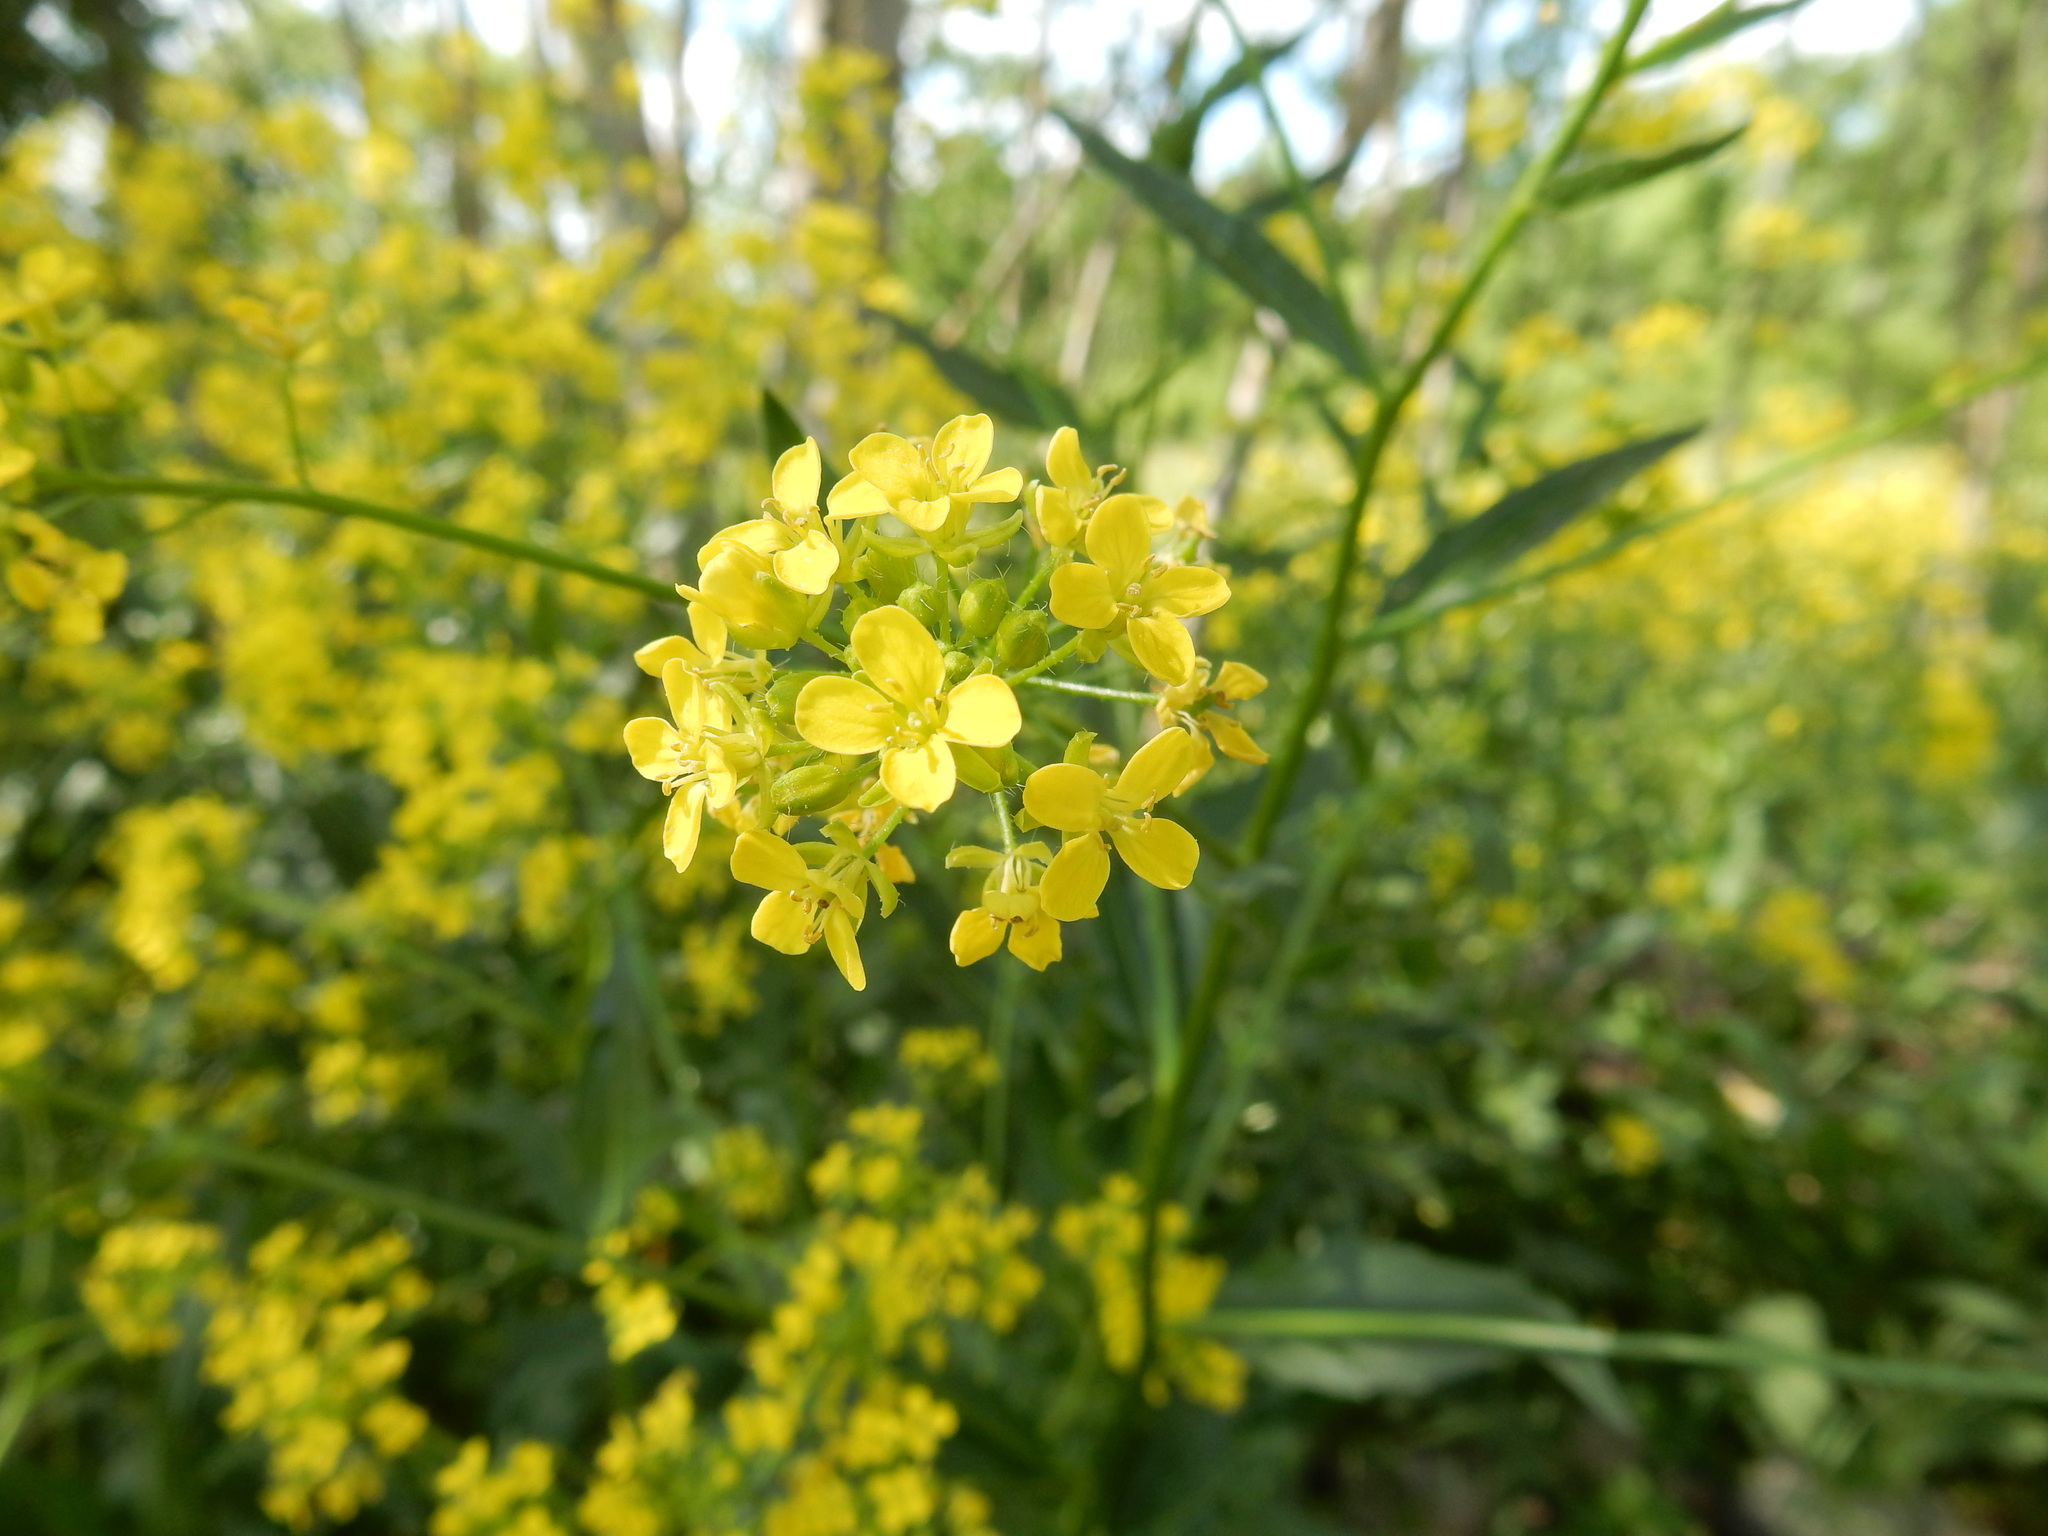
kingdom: Plantae
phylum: Tracheophyta
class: Magnoliopsida
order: Brassicales
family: Brassicaceae
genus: Bunias
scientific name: Bunias orientalis
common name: Warty-cabbage
